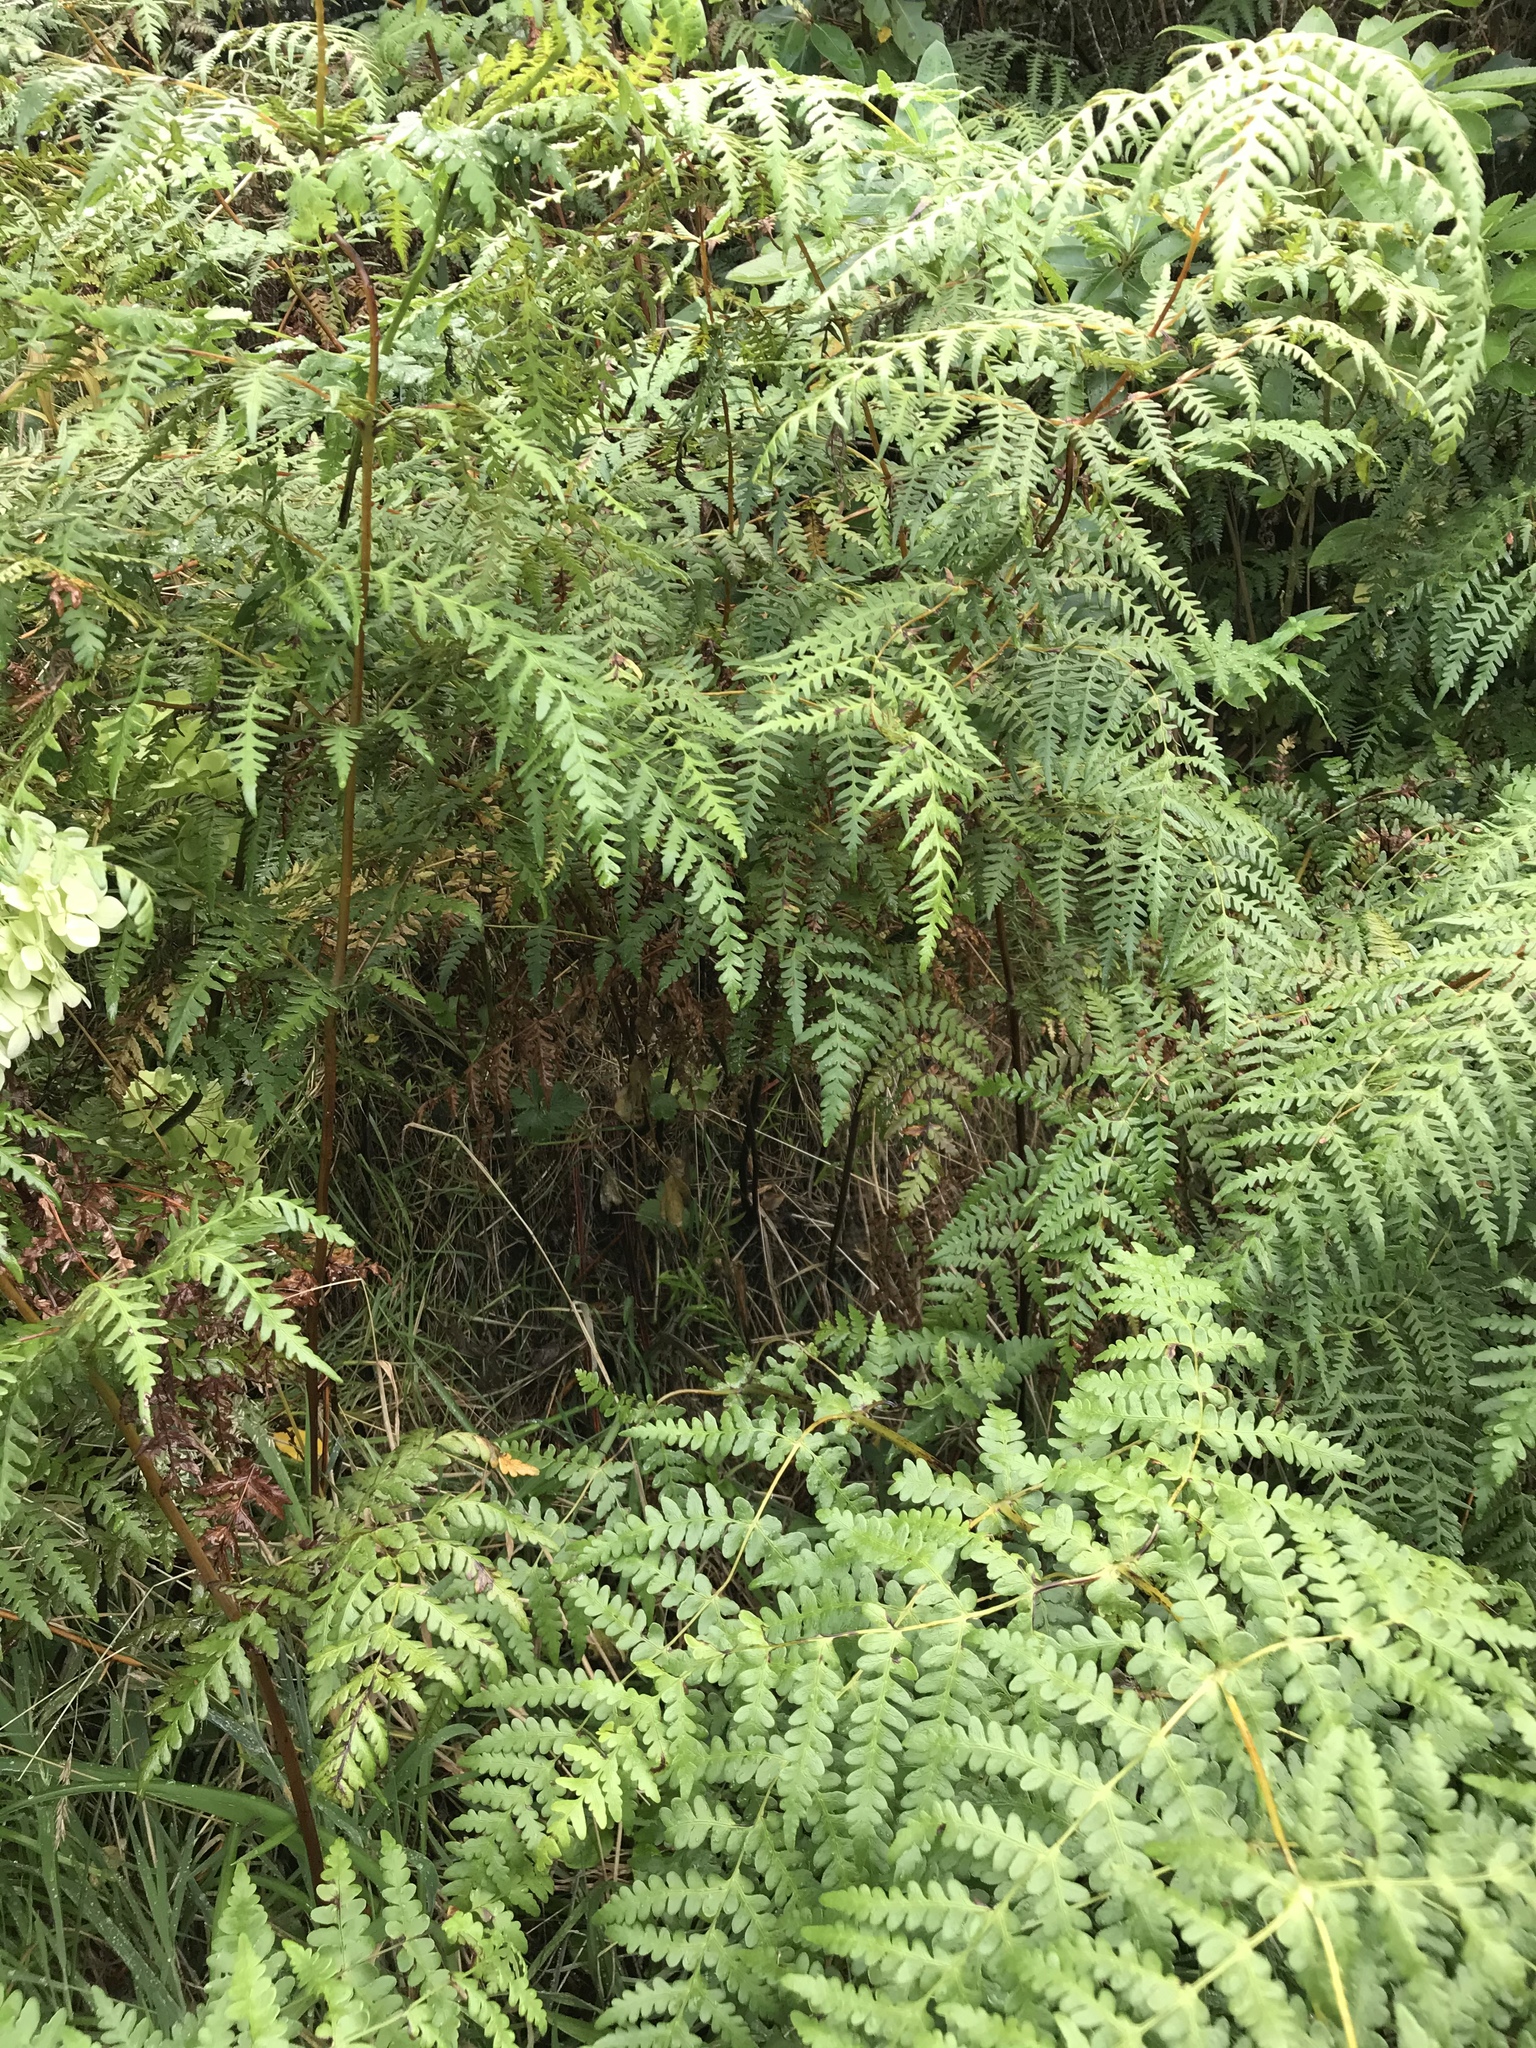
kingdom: Plantae
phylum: Tracheophyta
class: Polypodiopsida
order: Polypodiales
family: Dennstaedtiaceae
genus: Histiopteris
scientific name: Histiopteris incisa
